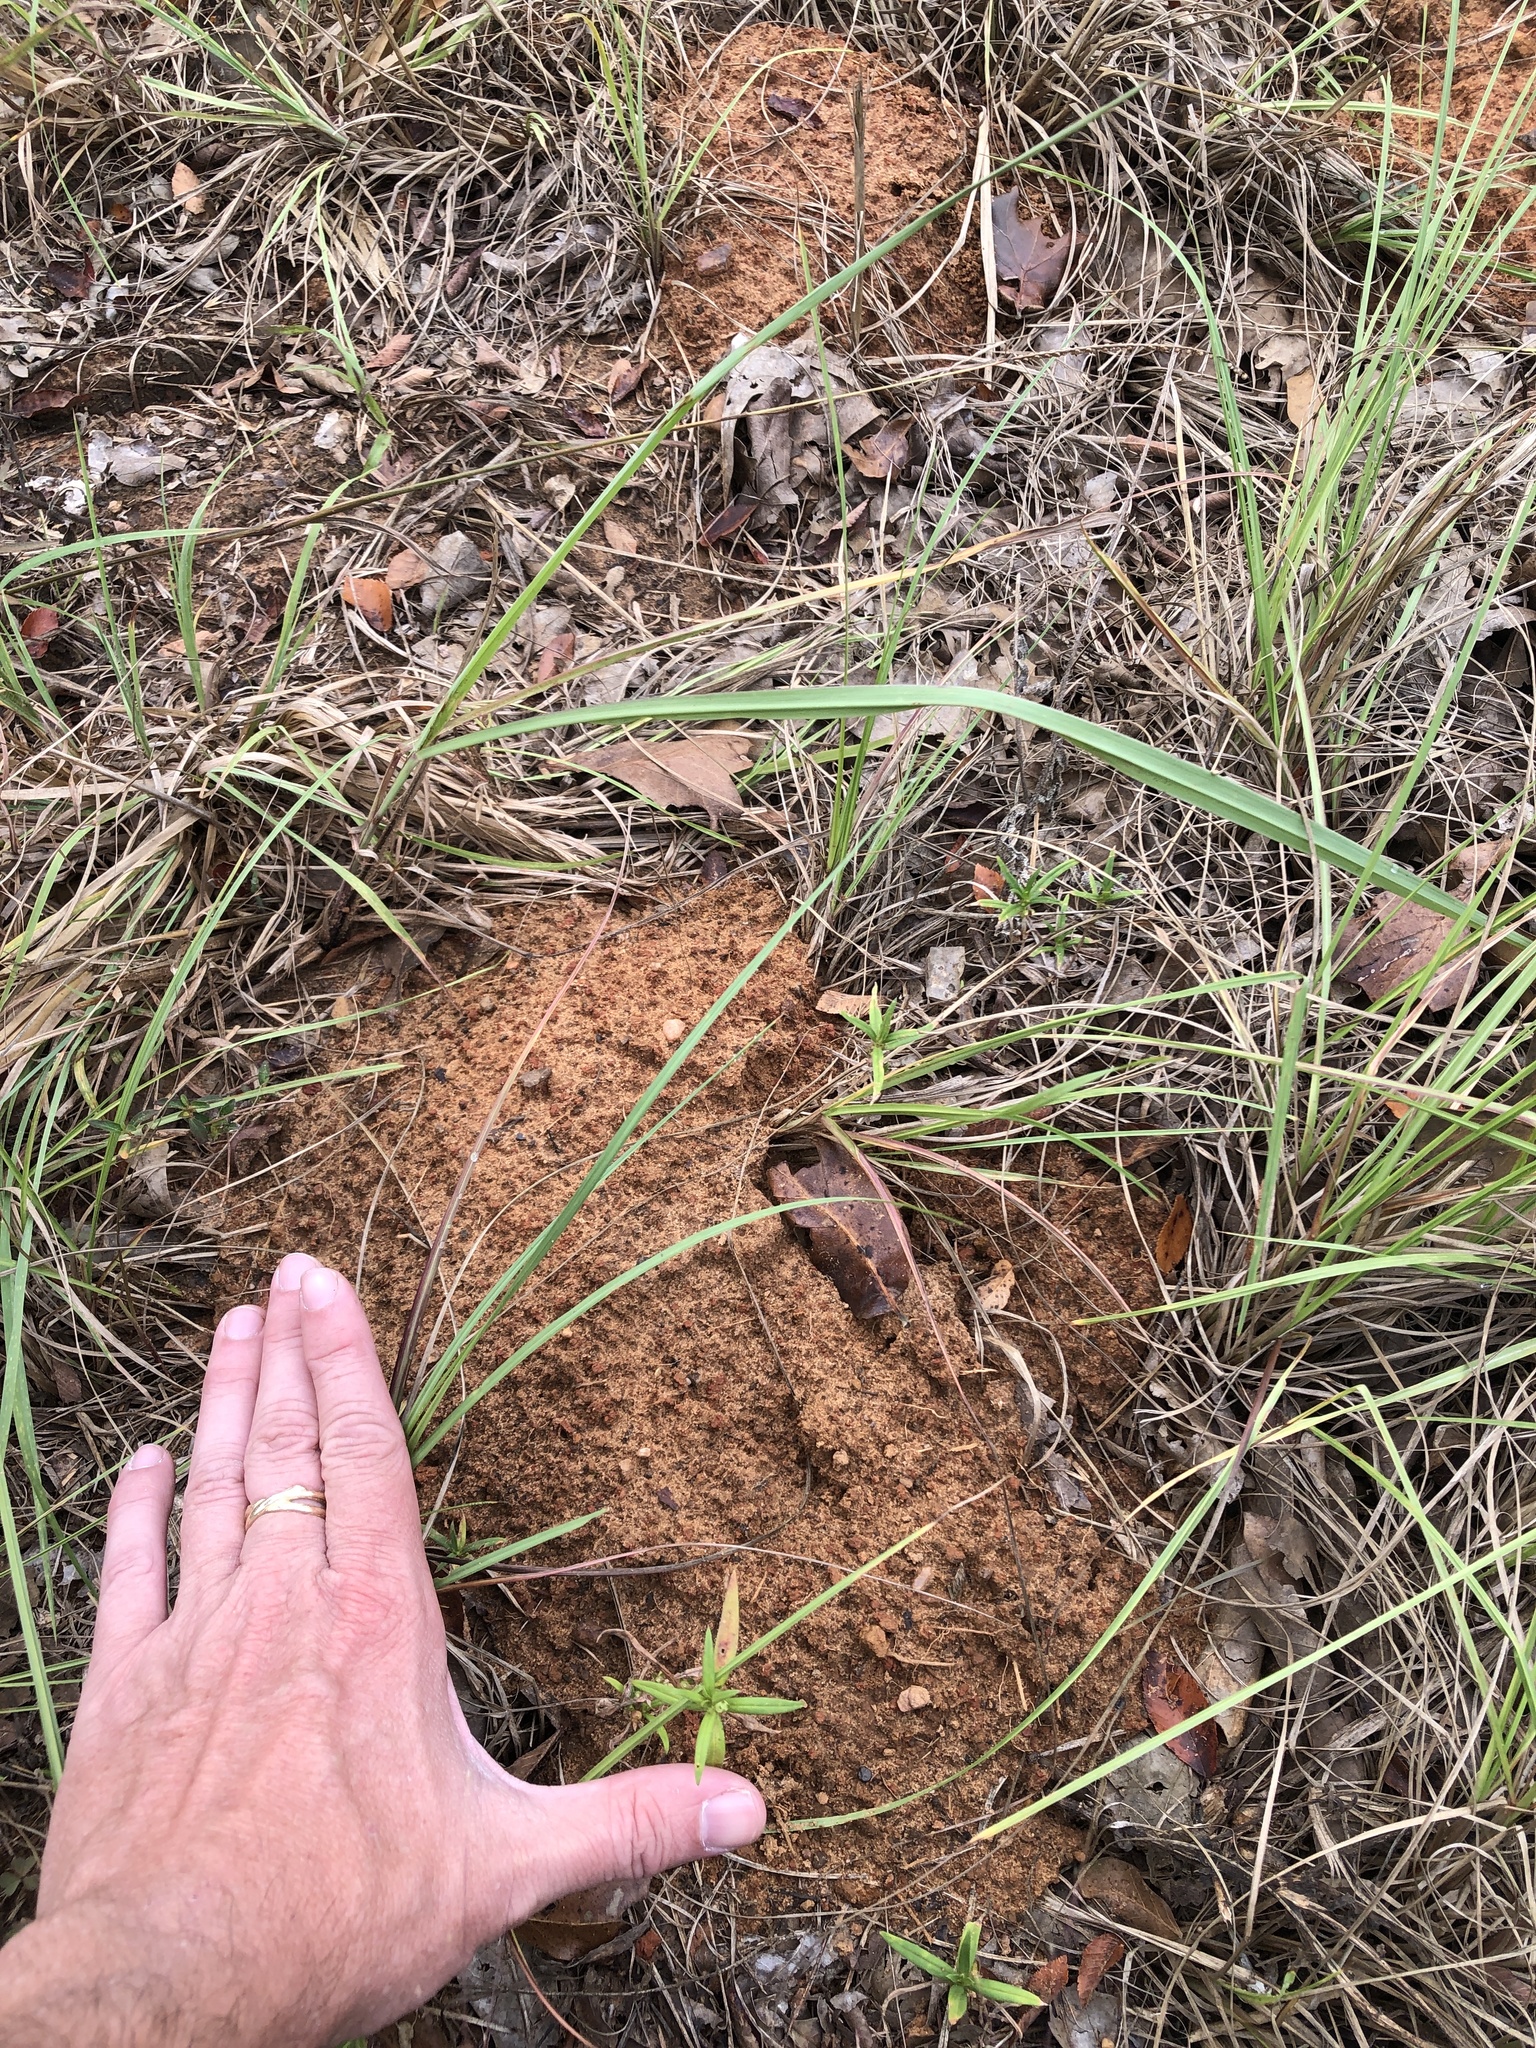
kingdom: Animalia
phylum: Chordata
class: Mammalia
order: Rodentia
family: Geomyidae
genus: Geomys
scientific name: Geomys breviceps
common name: Baird's pocket gopher
